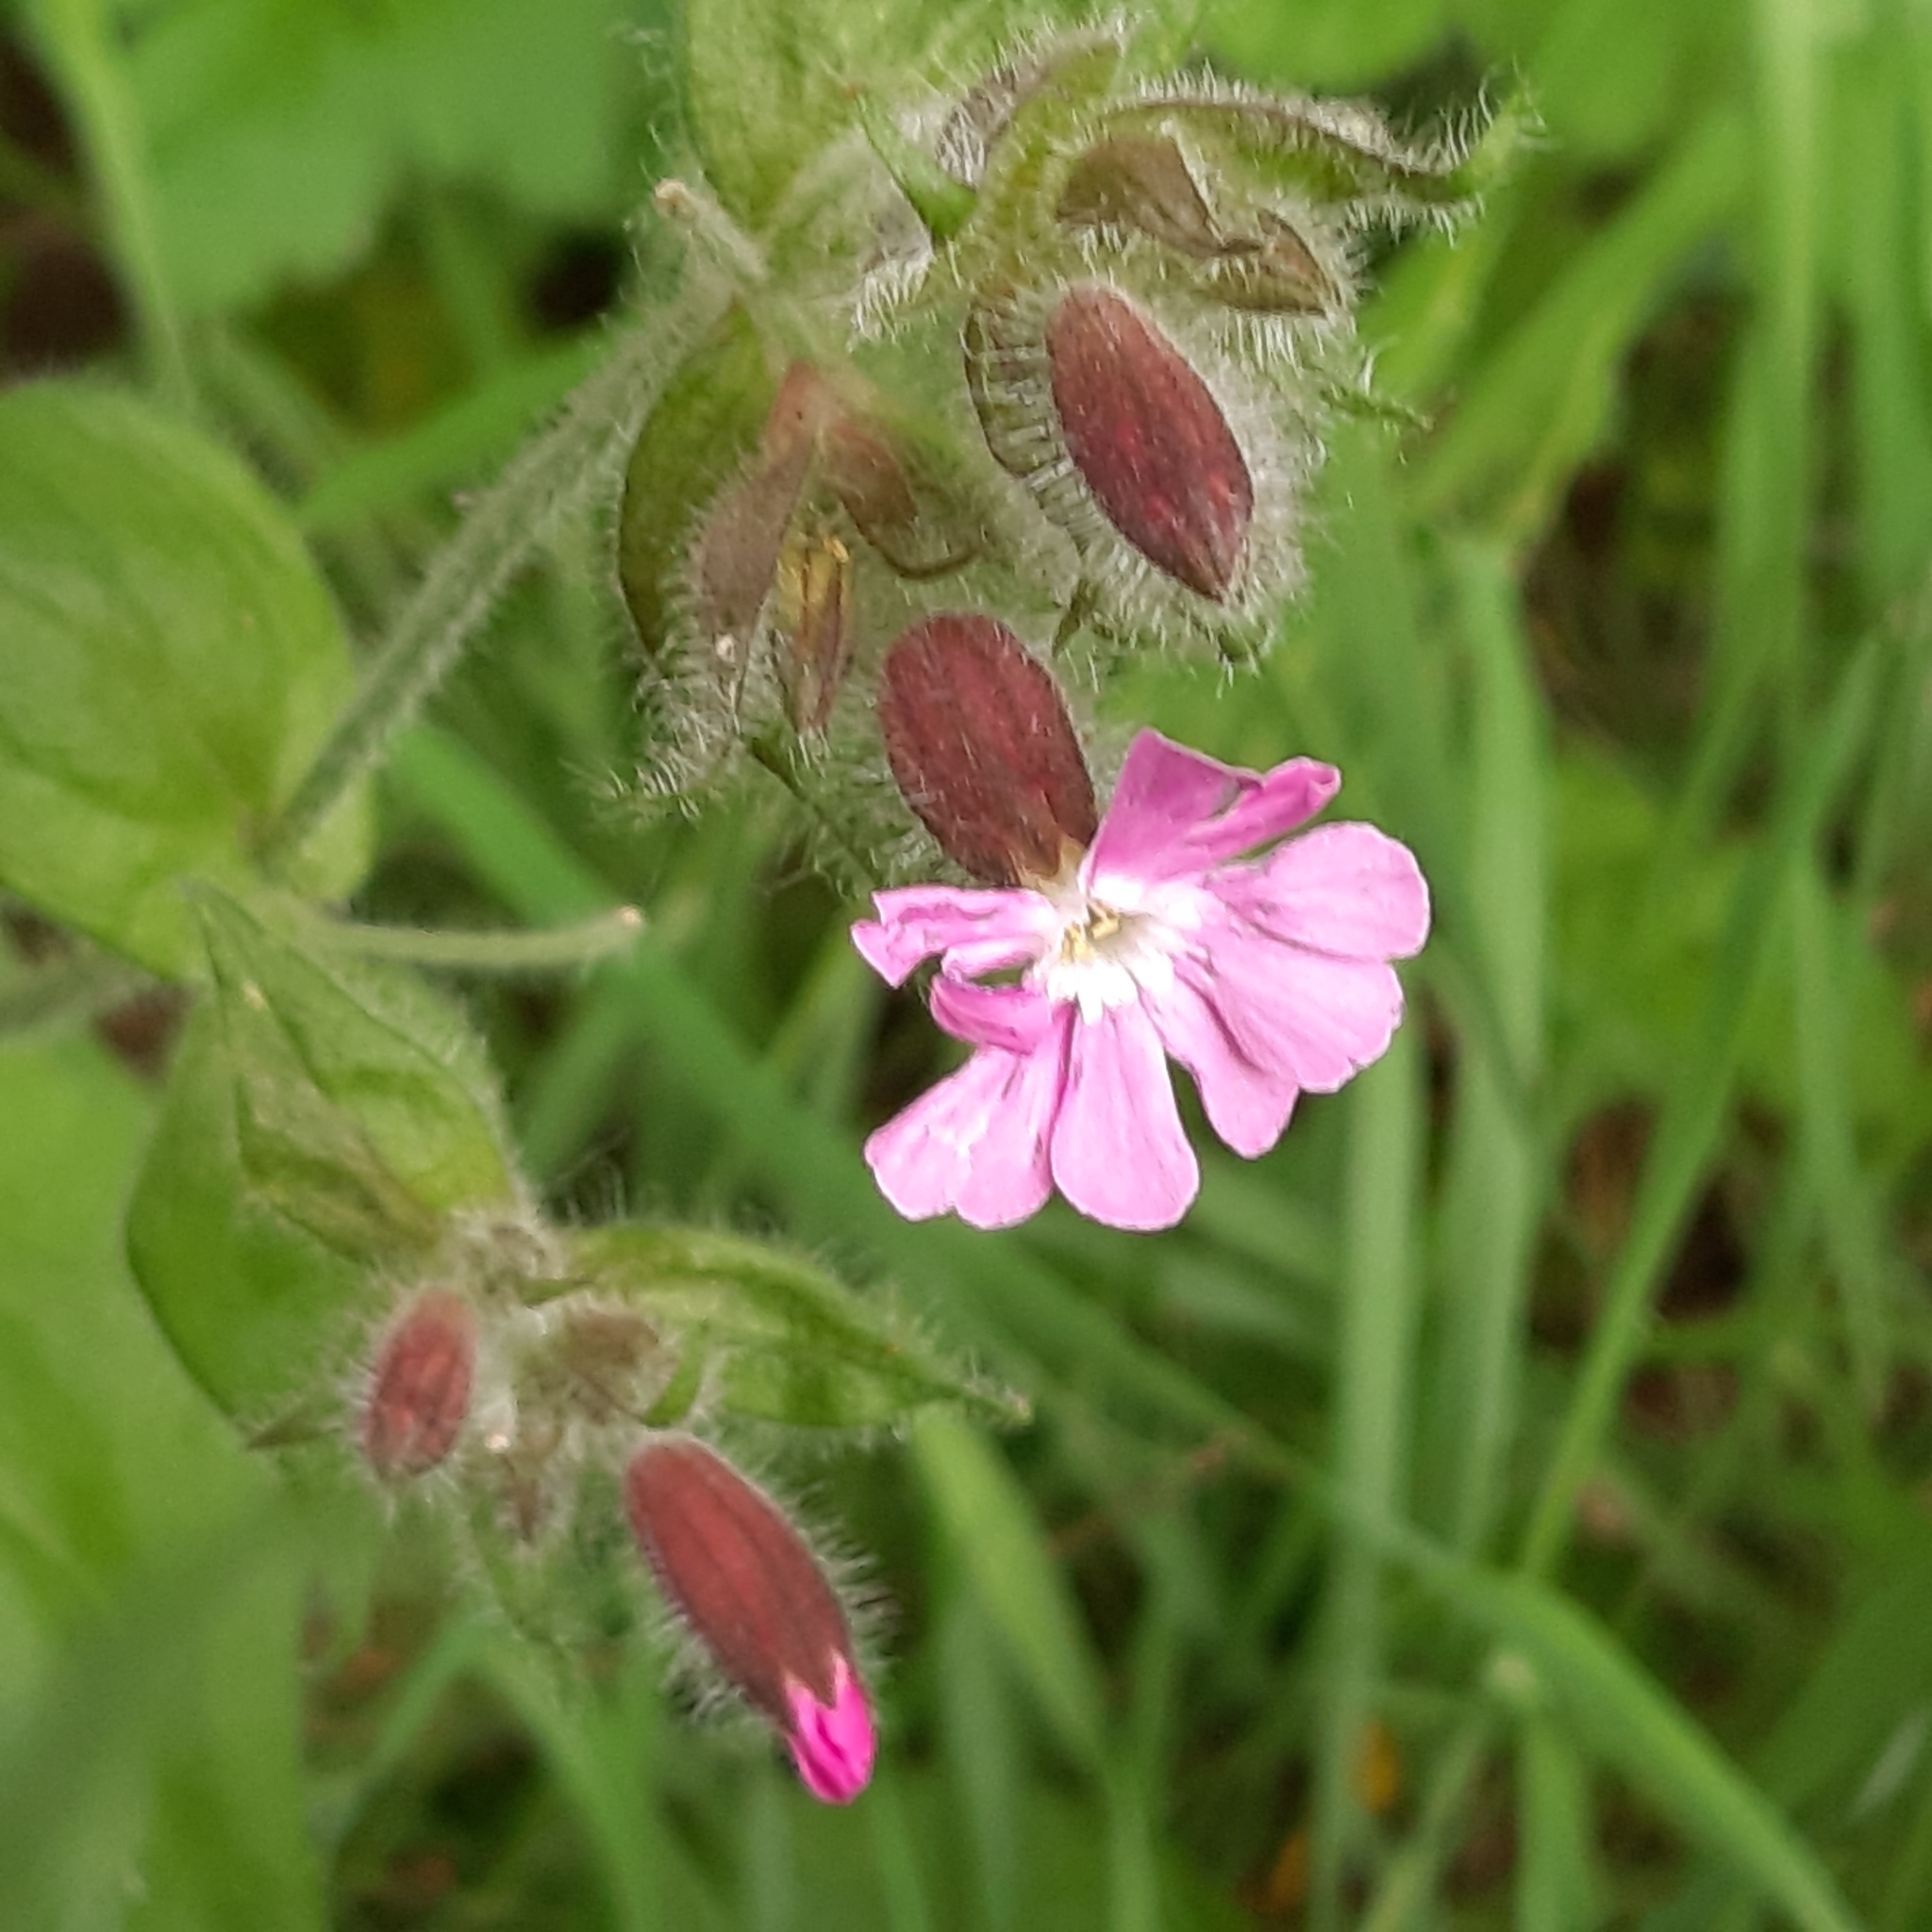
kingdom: Plantae
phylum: Tracheophyta
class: Magnoliopsida
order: Caryophyllales
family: Caryophyllaceae
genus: Silene
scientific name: Silene dioica
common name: Red campion
